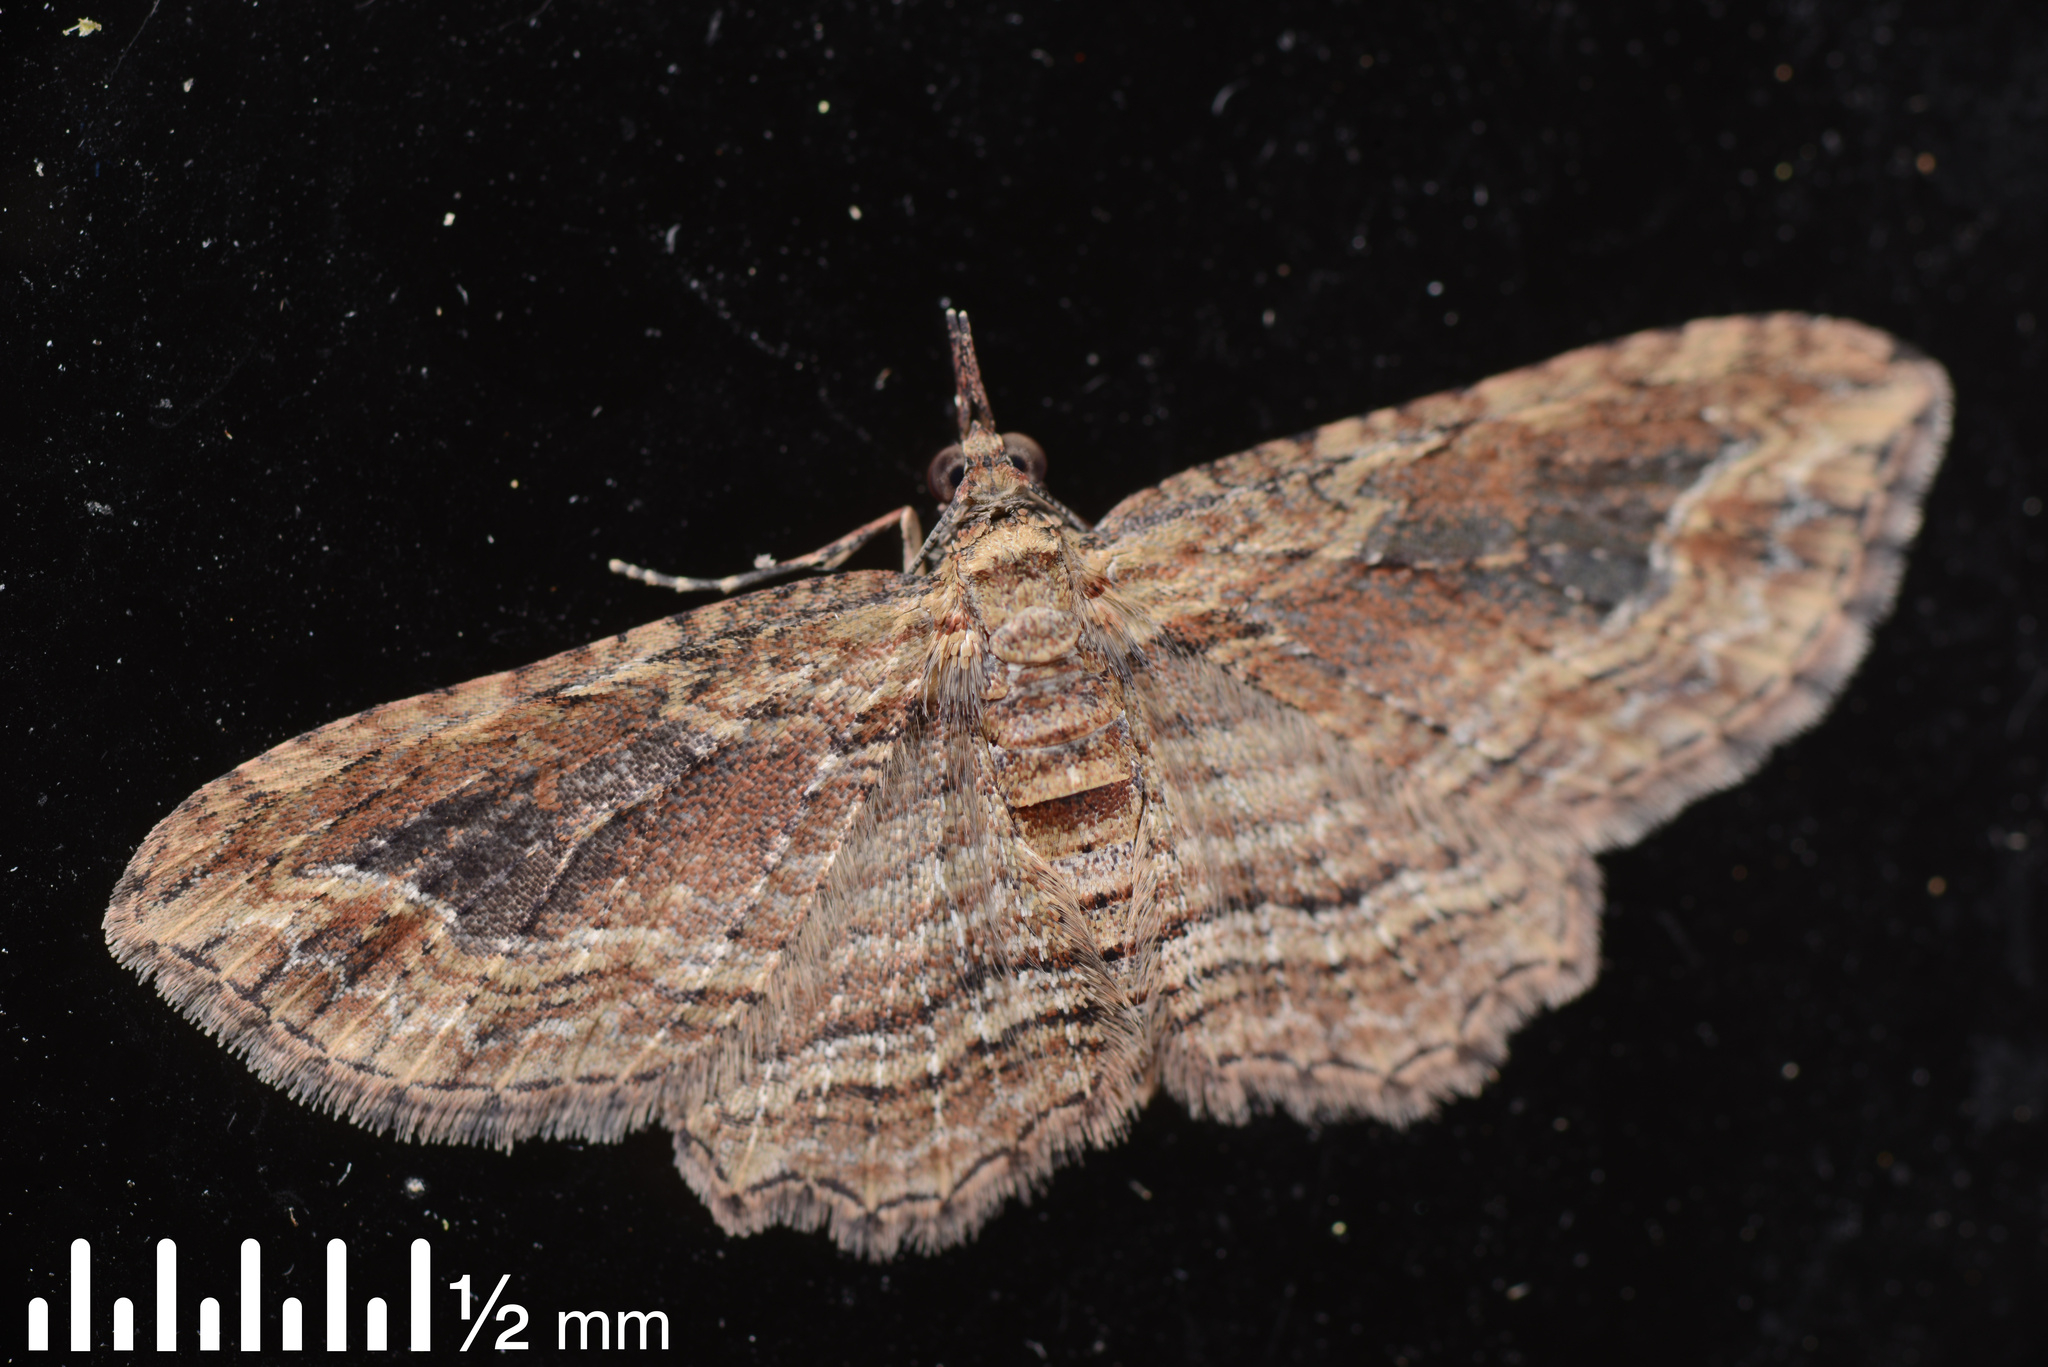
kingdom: Animalia
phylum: Arthropoda
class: Insecta
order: Lepidoptera
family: Geometridae
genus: Chloroclystis
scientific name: Chloroclystis filata
